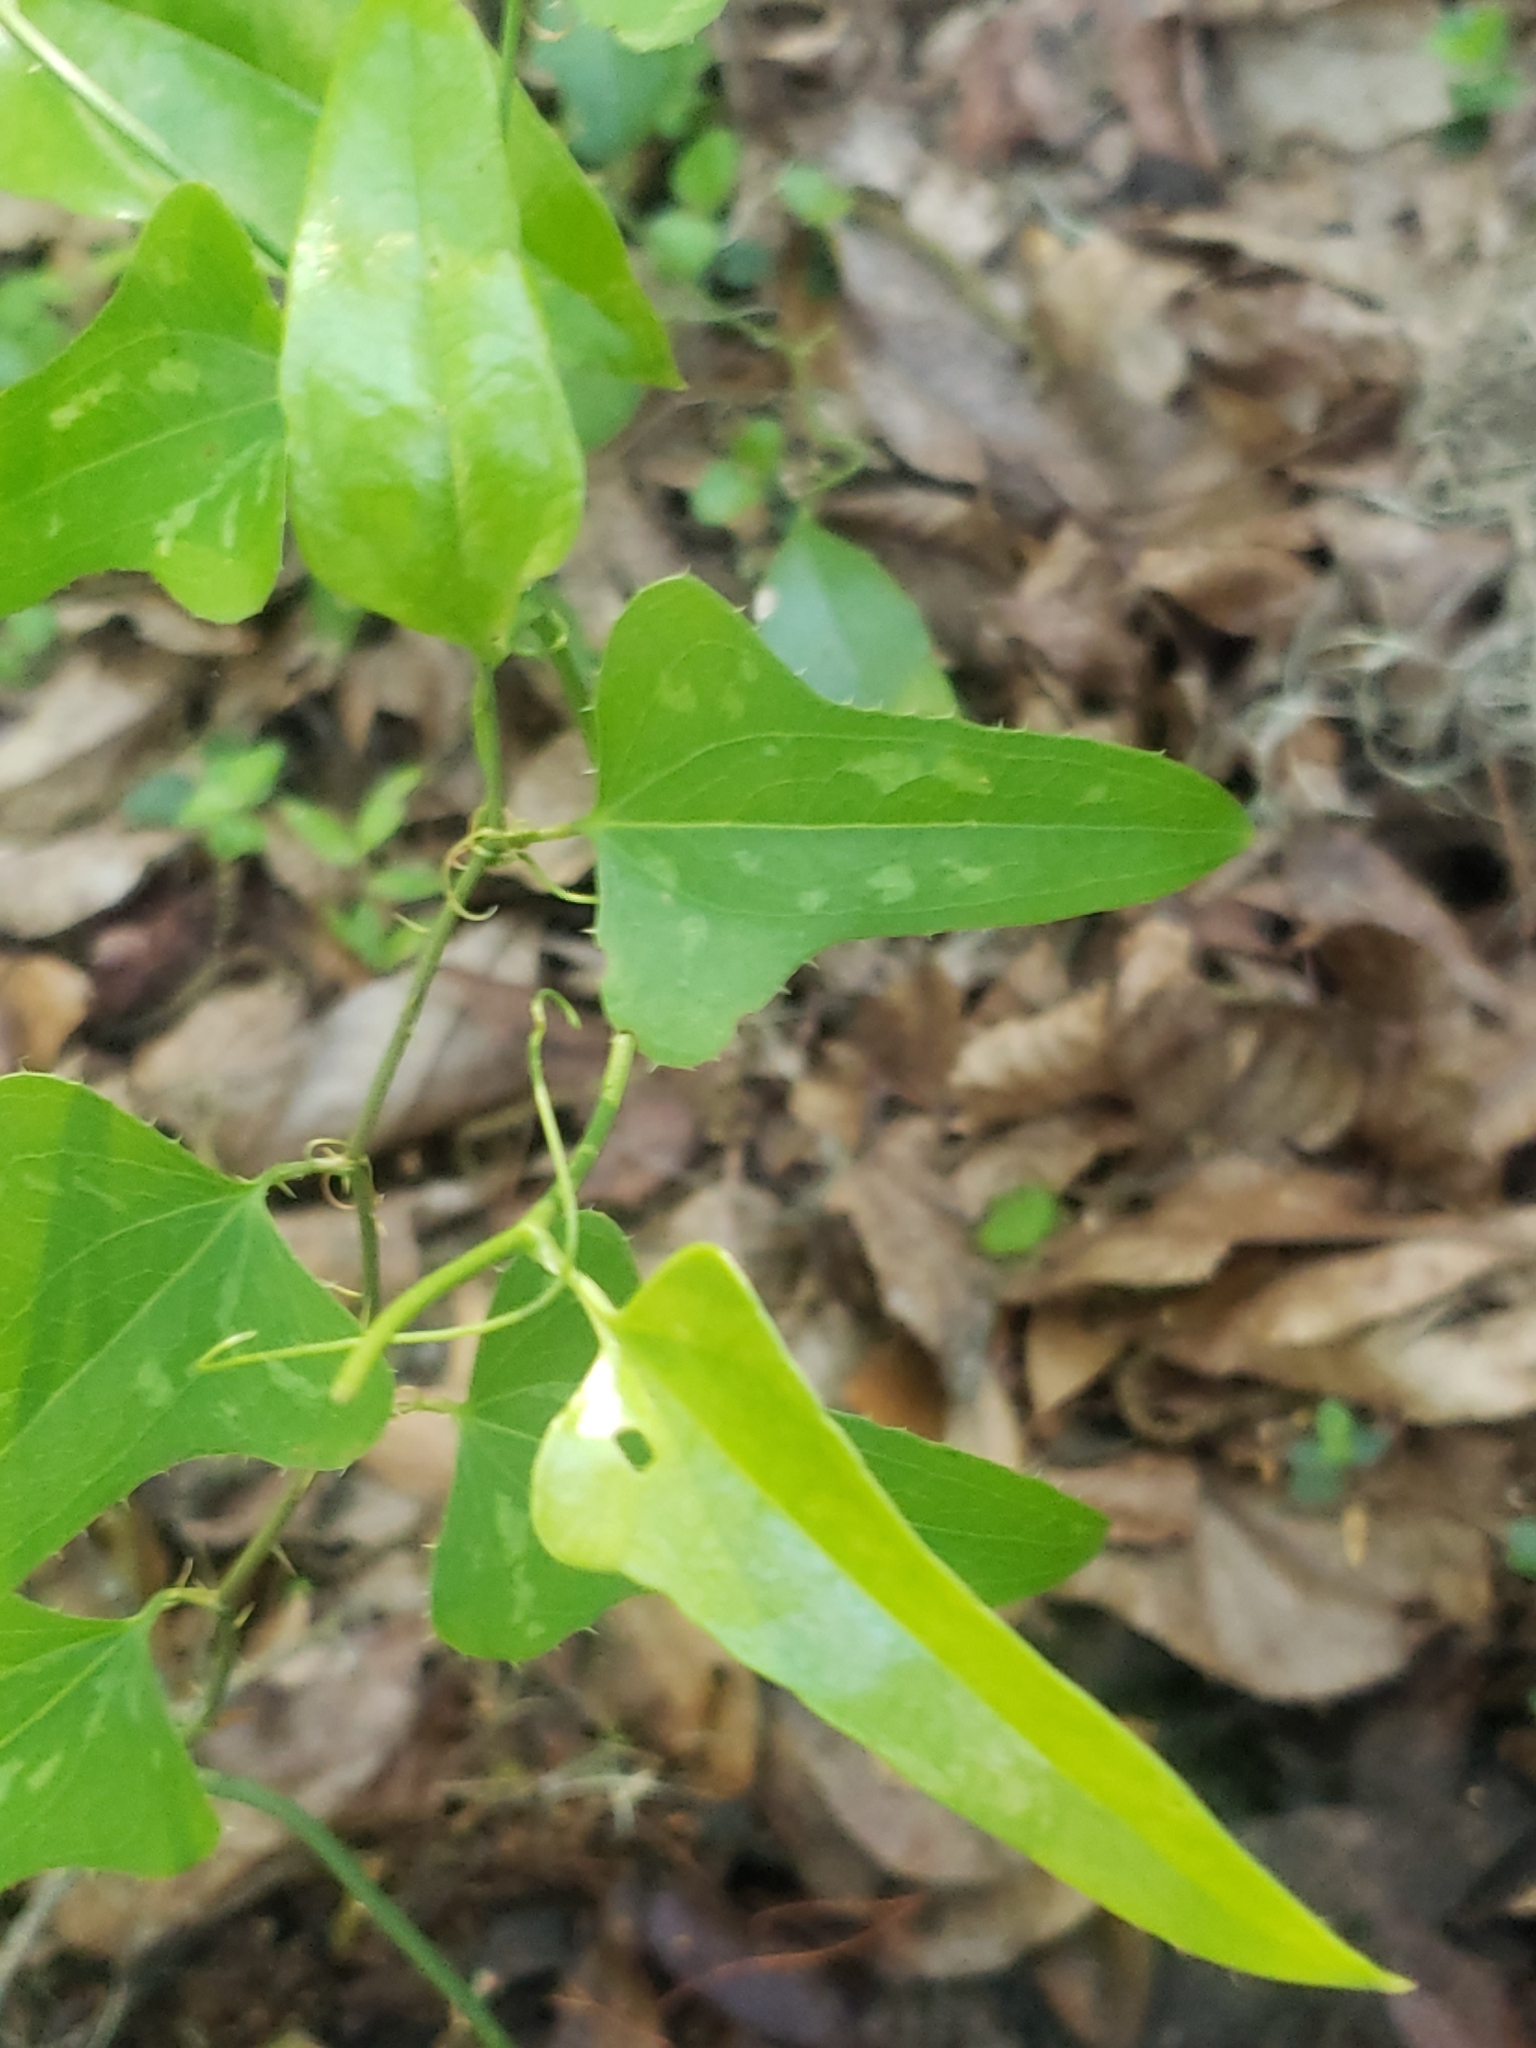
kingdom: Plantae
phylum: Tracheophyta
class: Liliopsida
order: Liliales
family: Smilacaceae
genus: Smilax
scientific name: Smilax bona-nox
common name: Catbrier
